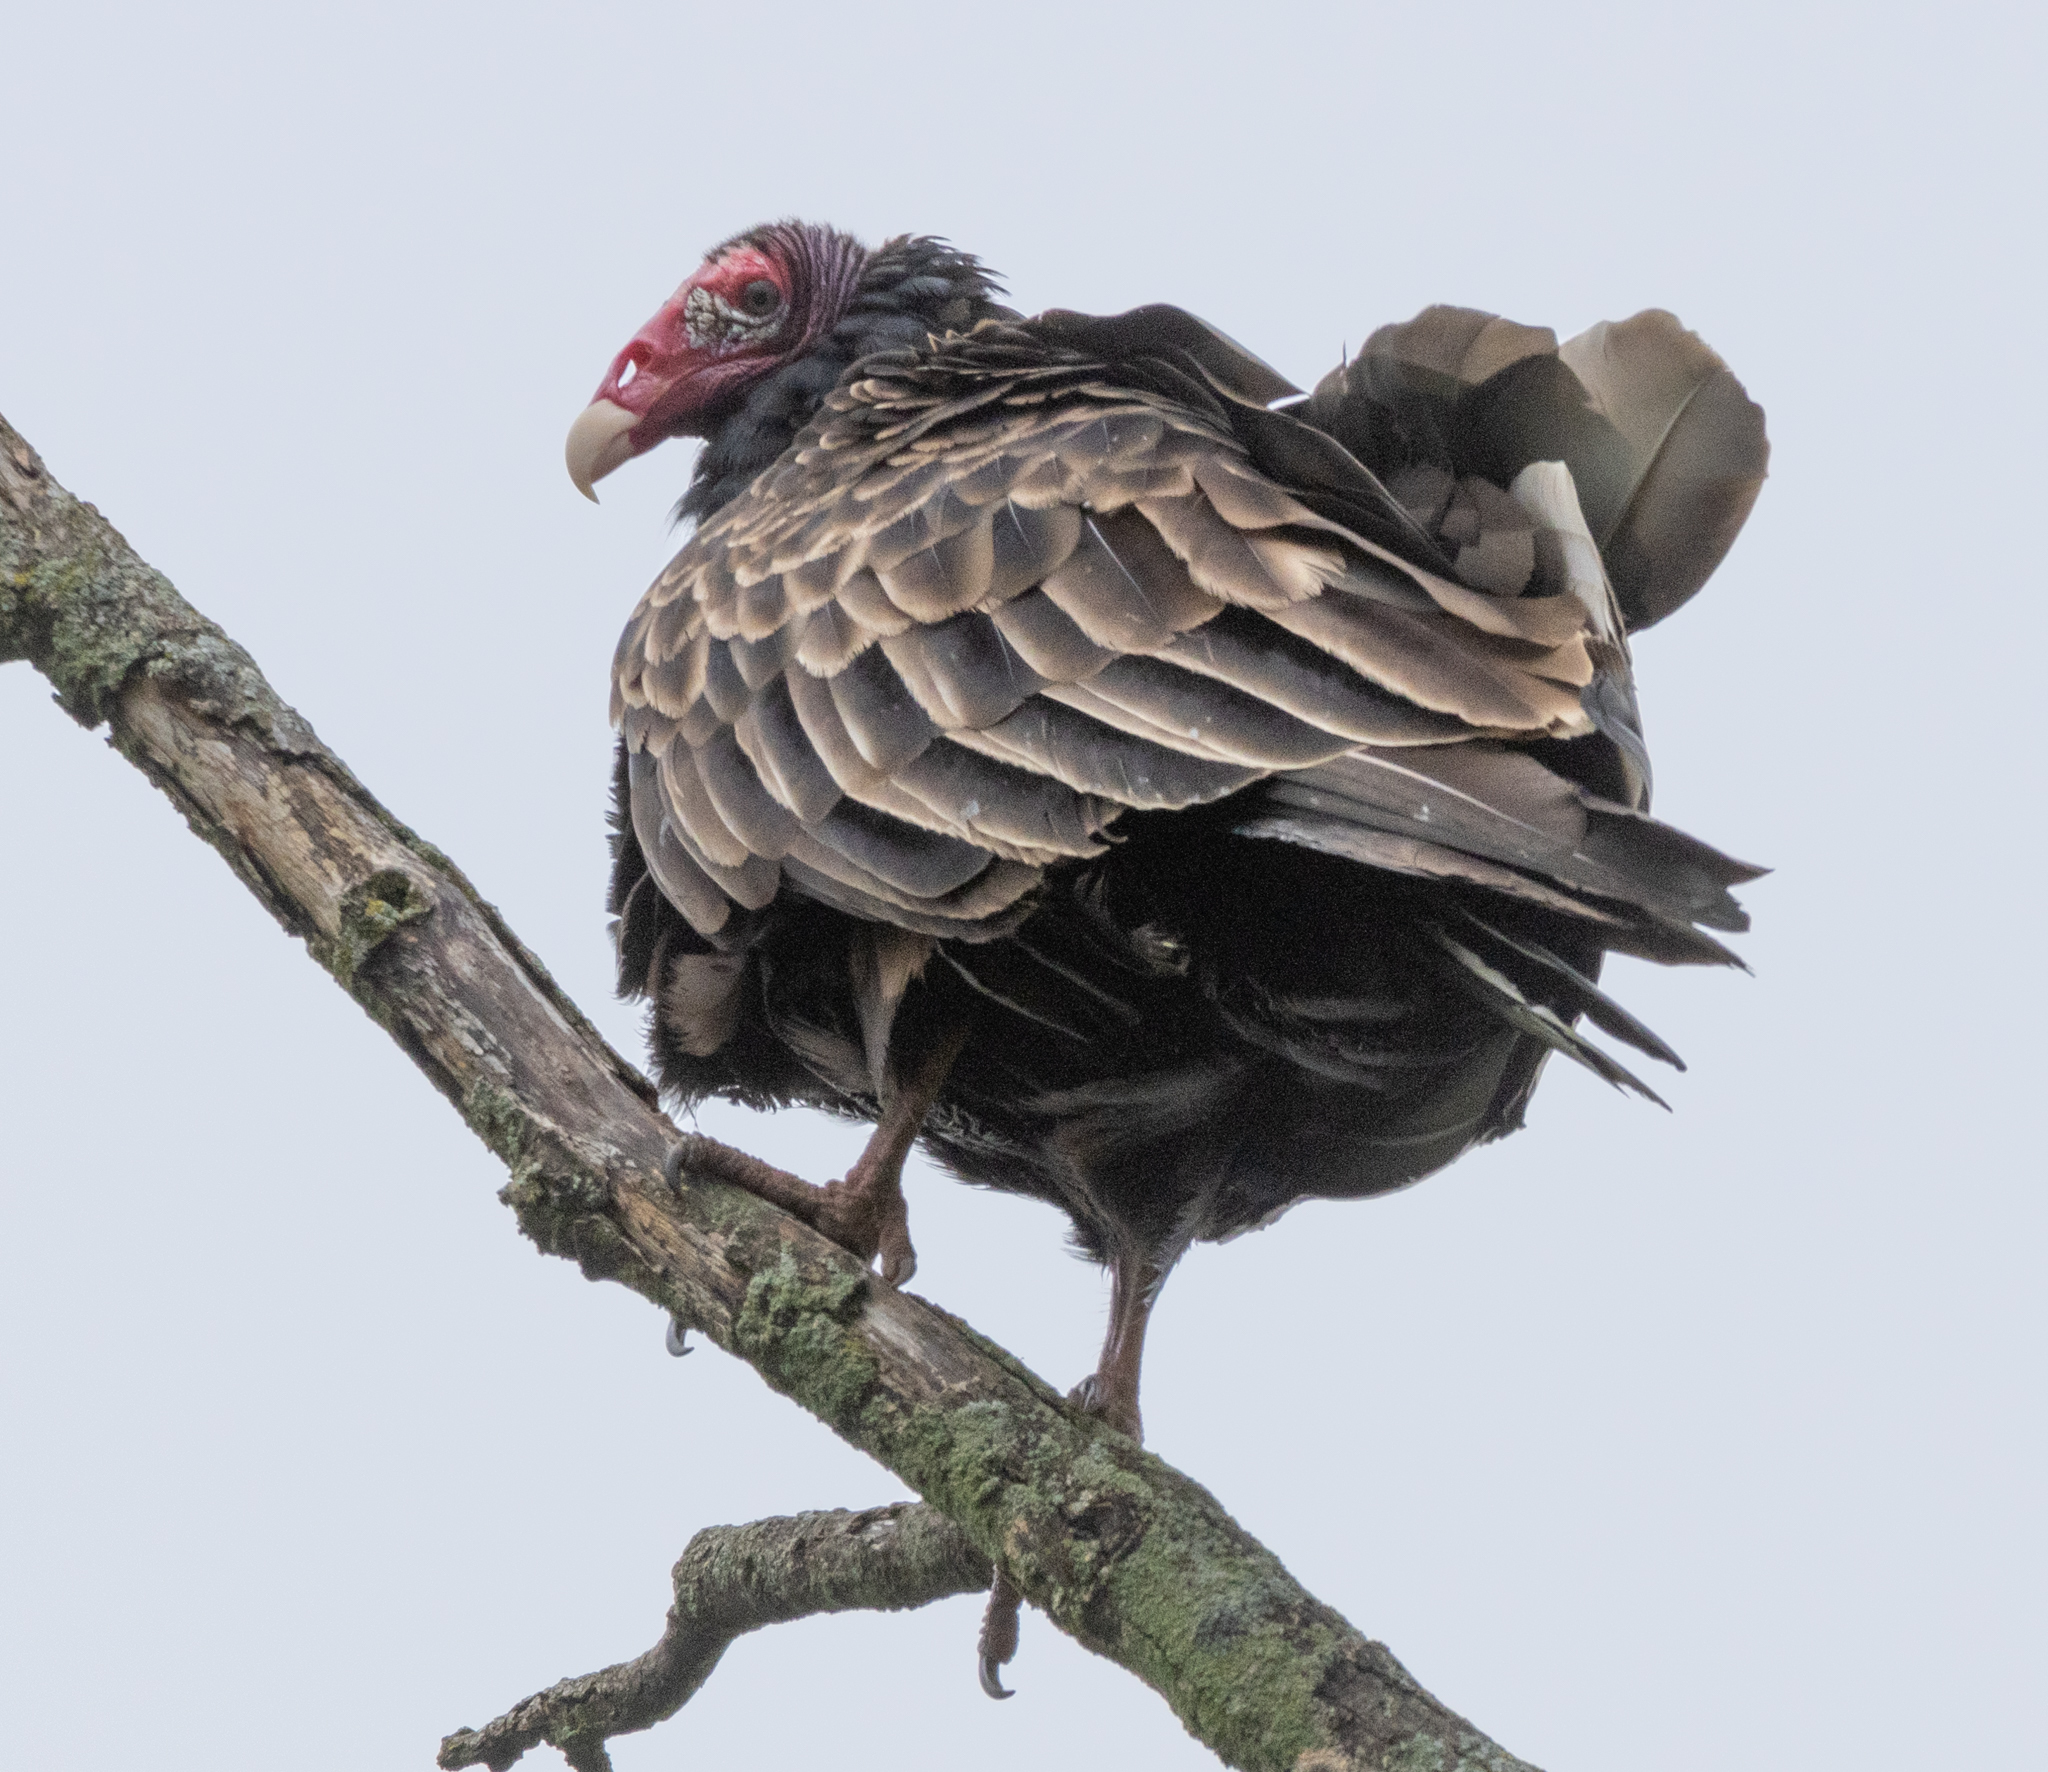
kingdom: Animalia
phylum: Chordata
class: Aves
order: Accipitriformes
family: Cathartidae
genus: Cathartes
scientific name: Cathartes aura
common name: Turkey vulture
